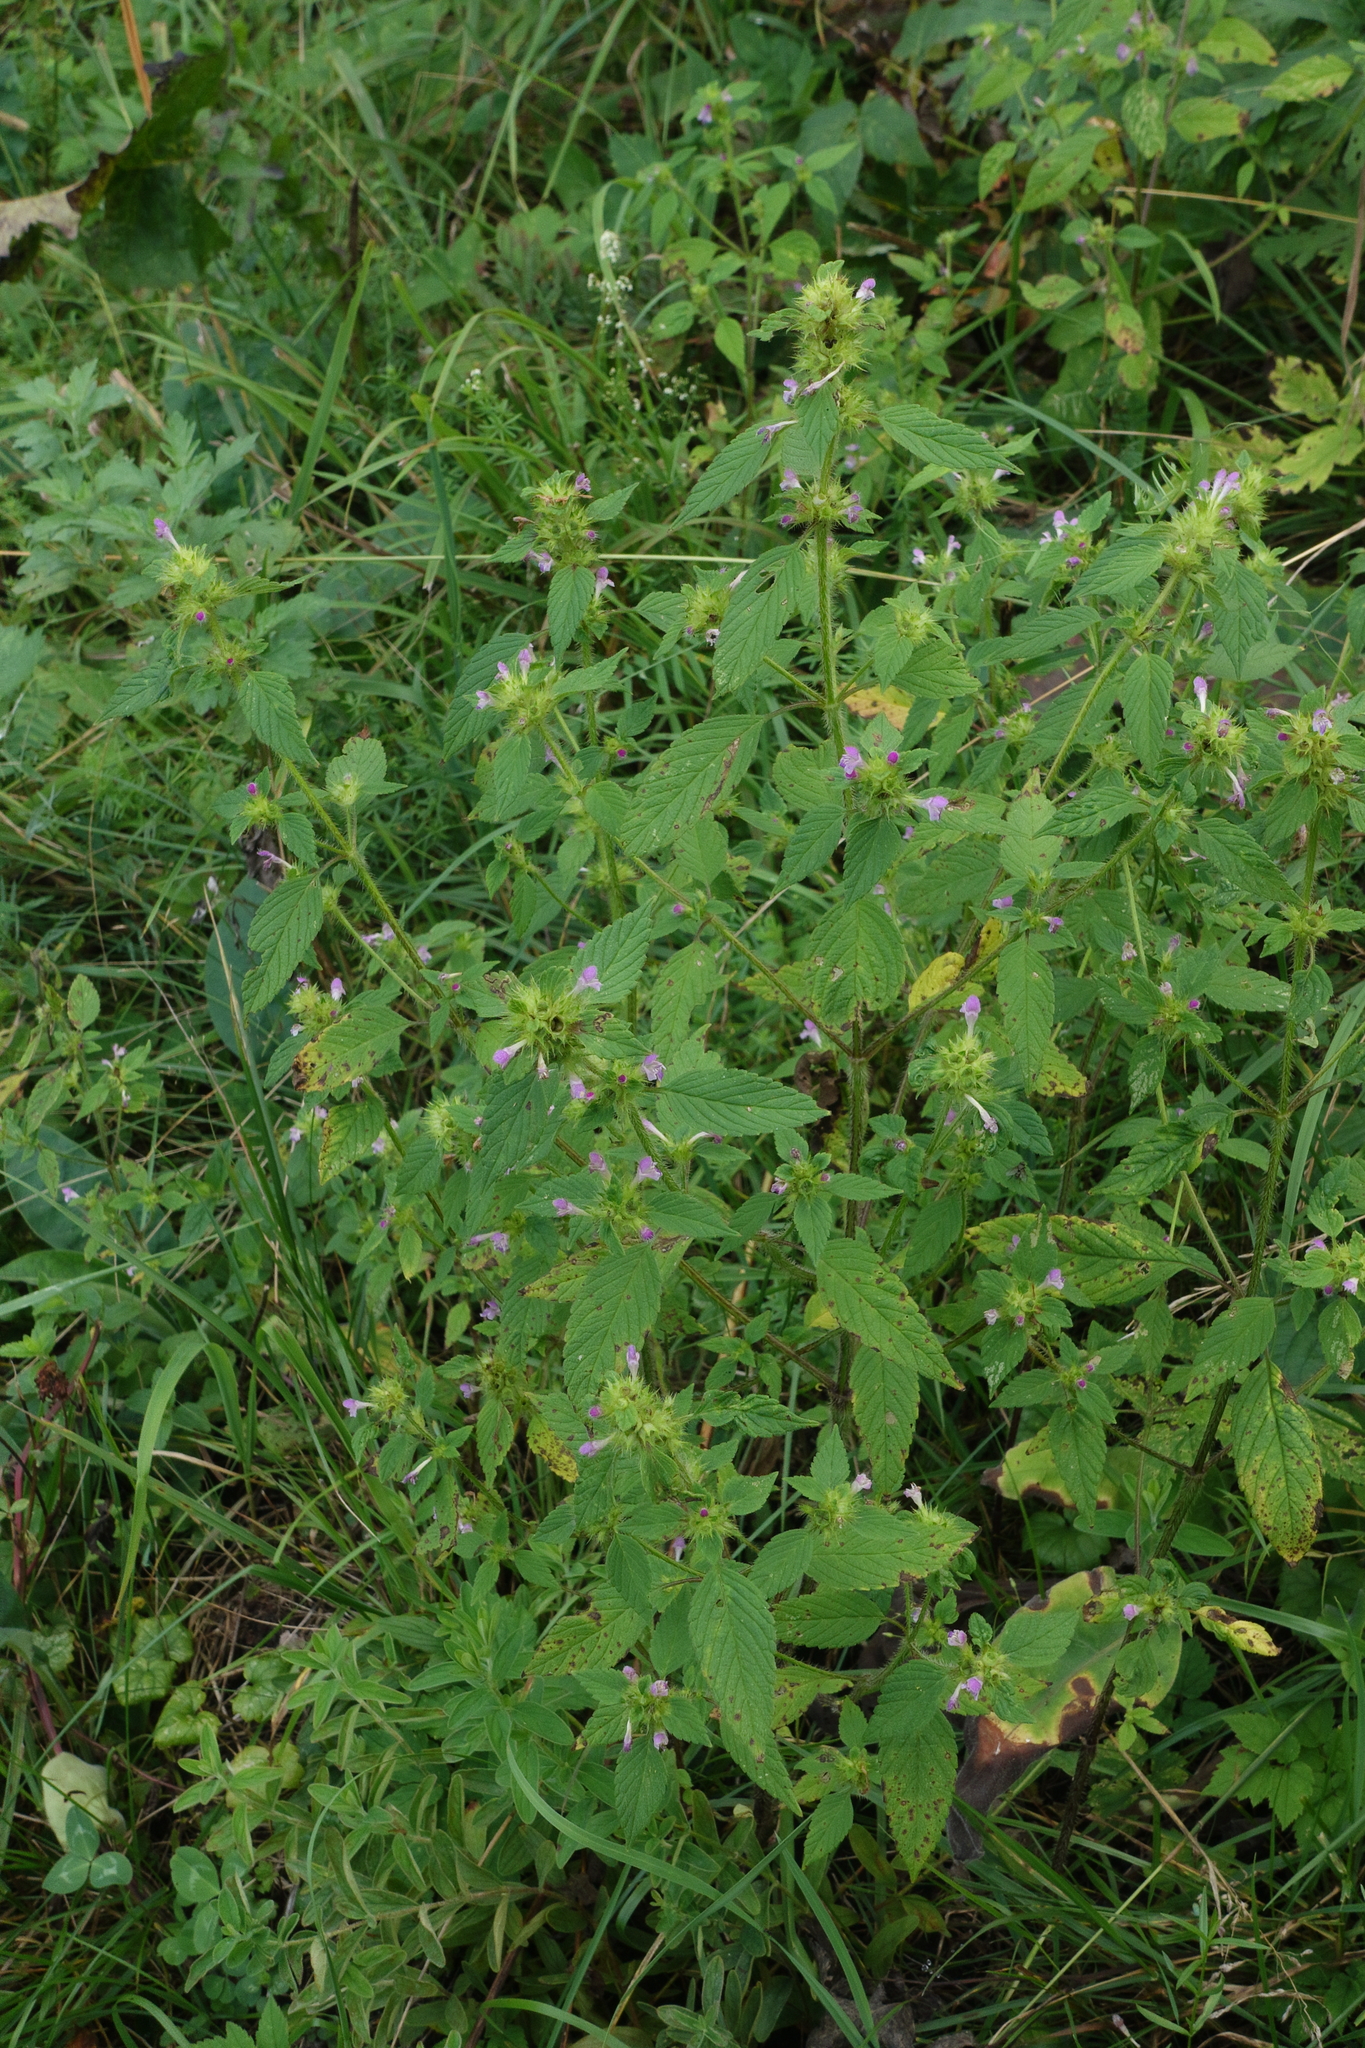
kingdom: Plantae
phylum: Tracheophyta
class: Magnoliopsida
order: Lamiales
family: Lamiaceae
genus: Galeopsis
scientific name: Galeopsis bifida
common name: Bifid hemp-nettle
